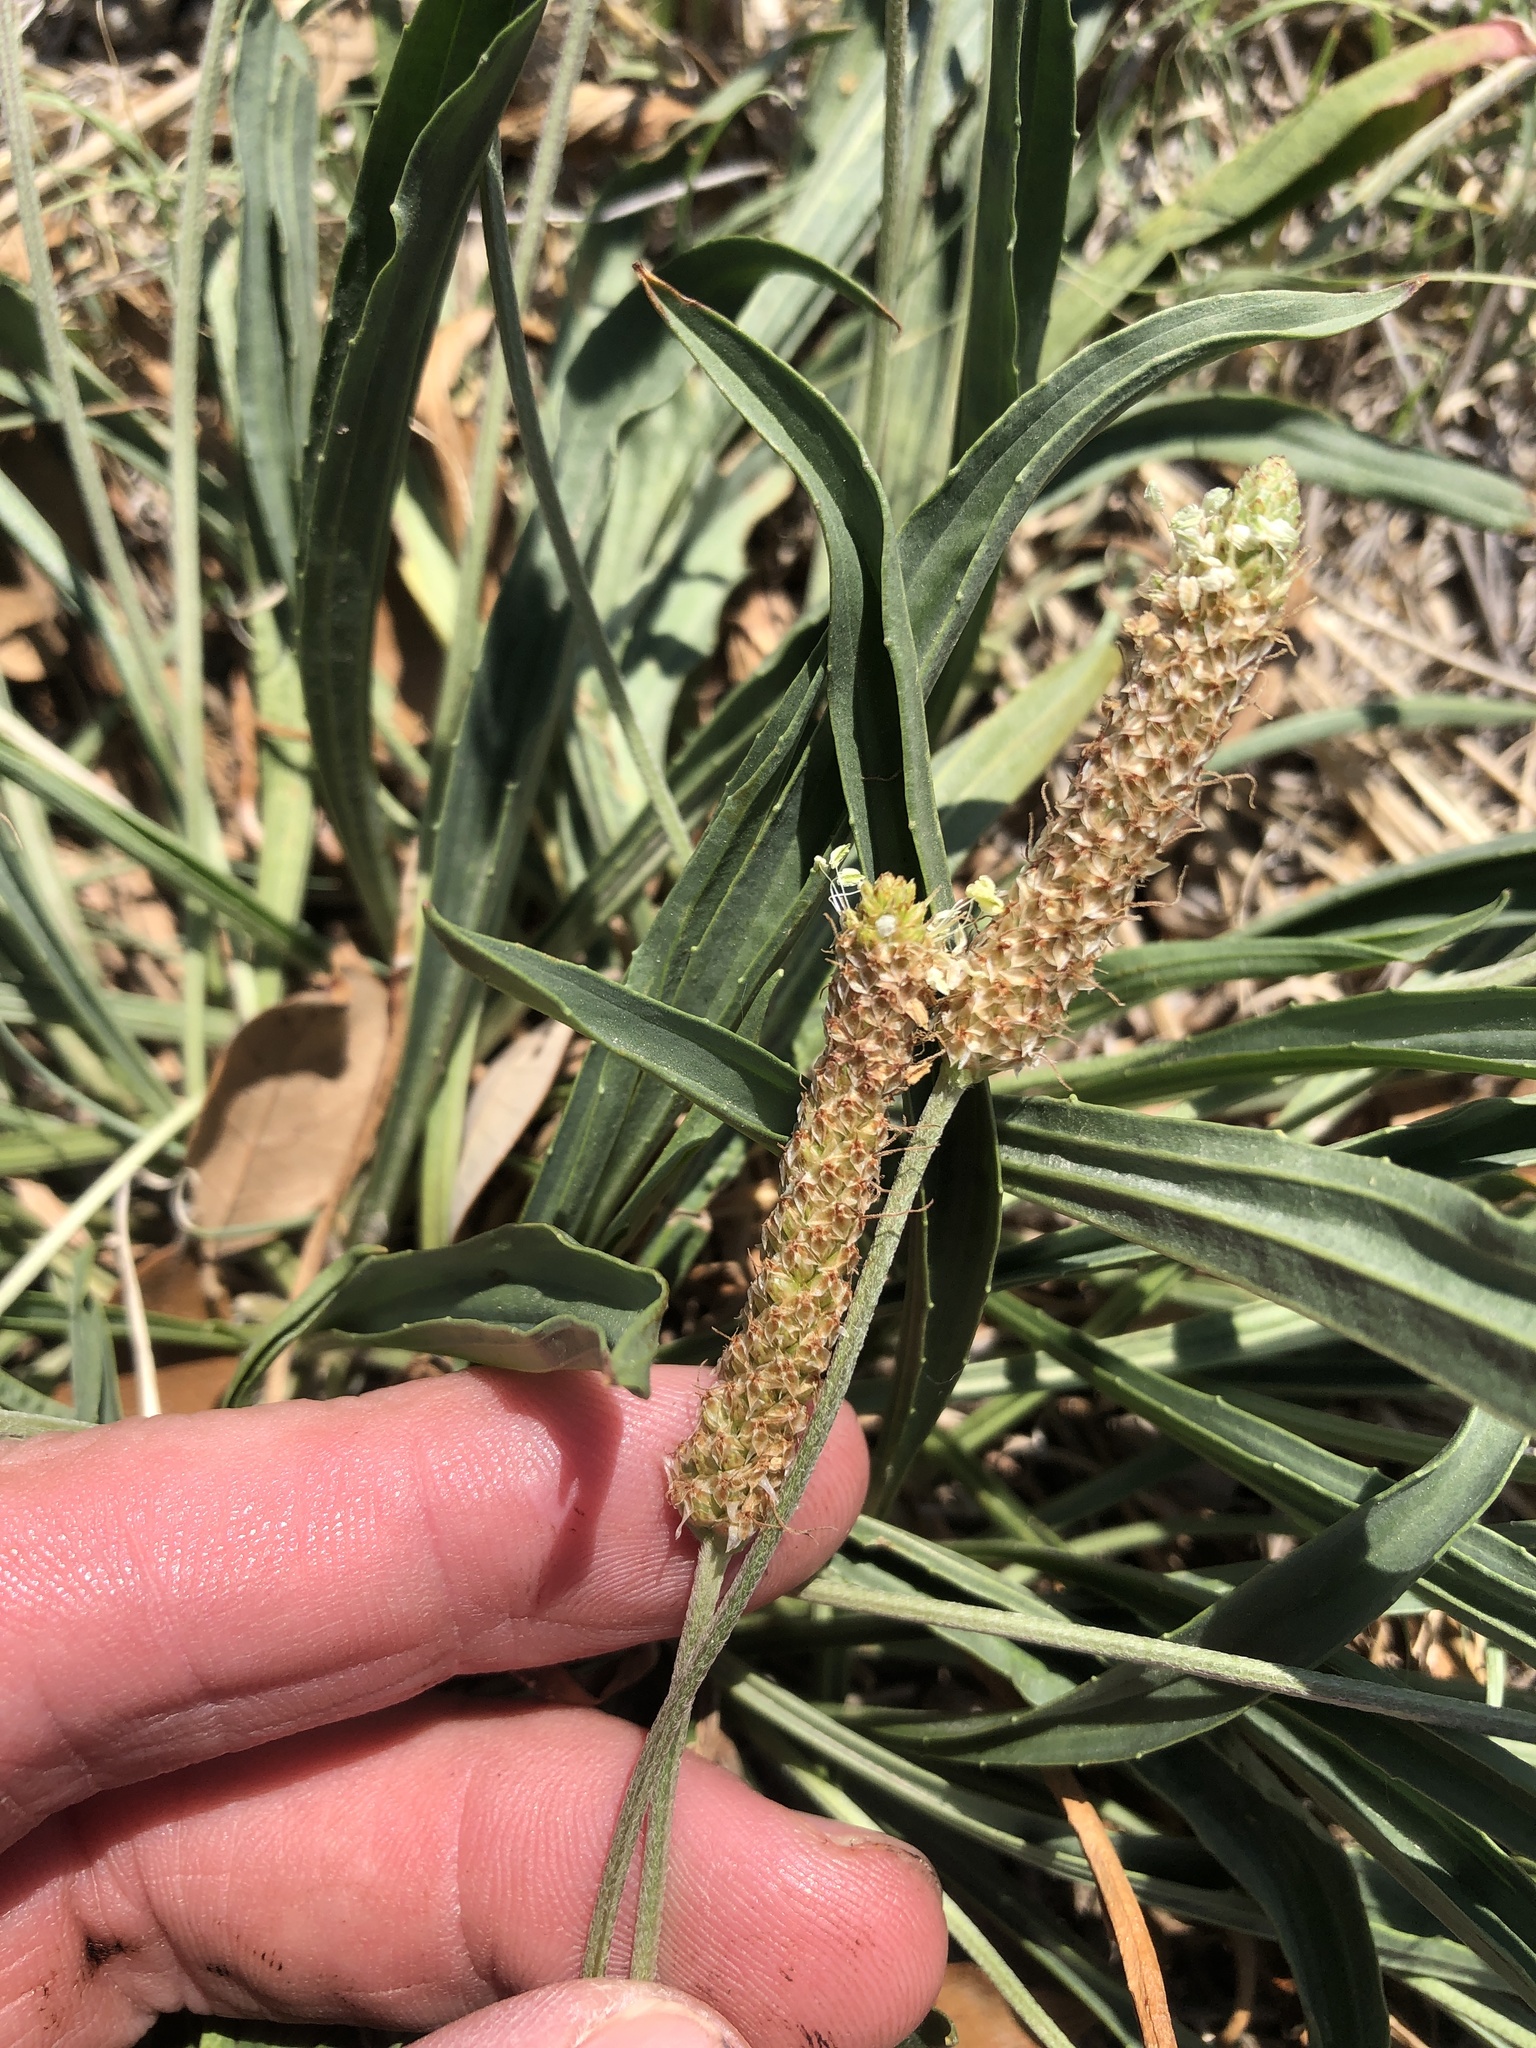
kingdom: Plantae
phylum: Tracheophyta
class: Magnoliopsida
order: Lamiales
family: Plantaginaceae
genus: Plantago
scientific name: Plantago lanceolata
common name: Ribwort plantain
